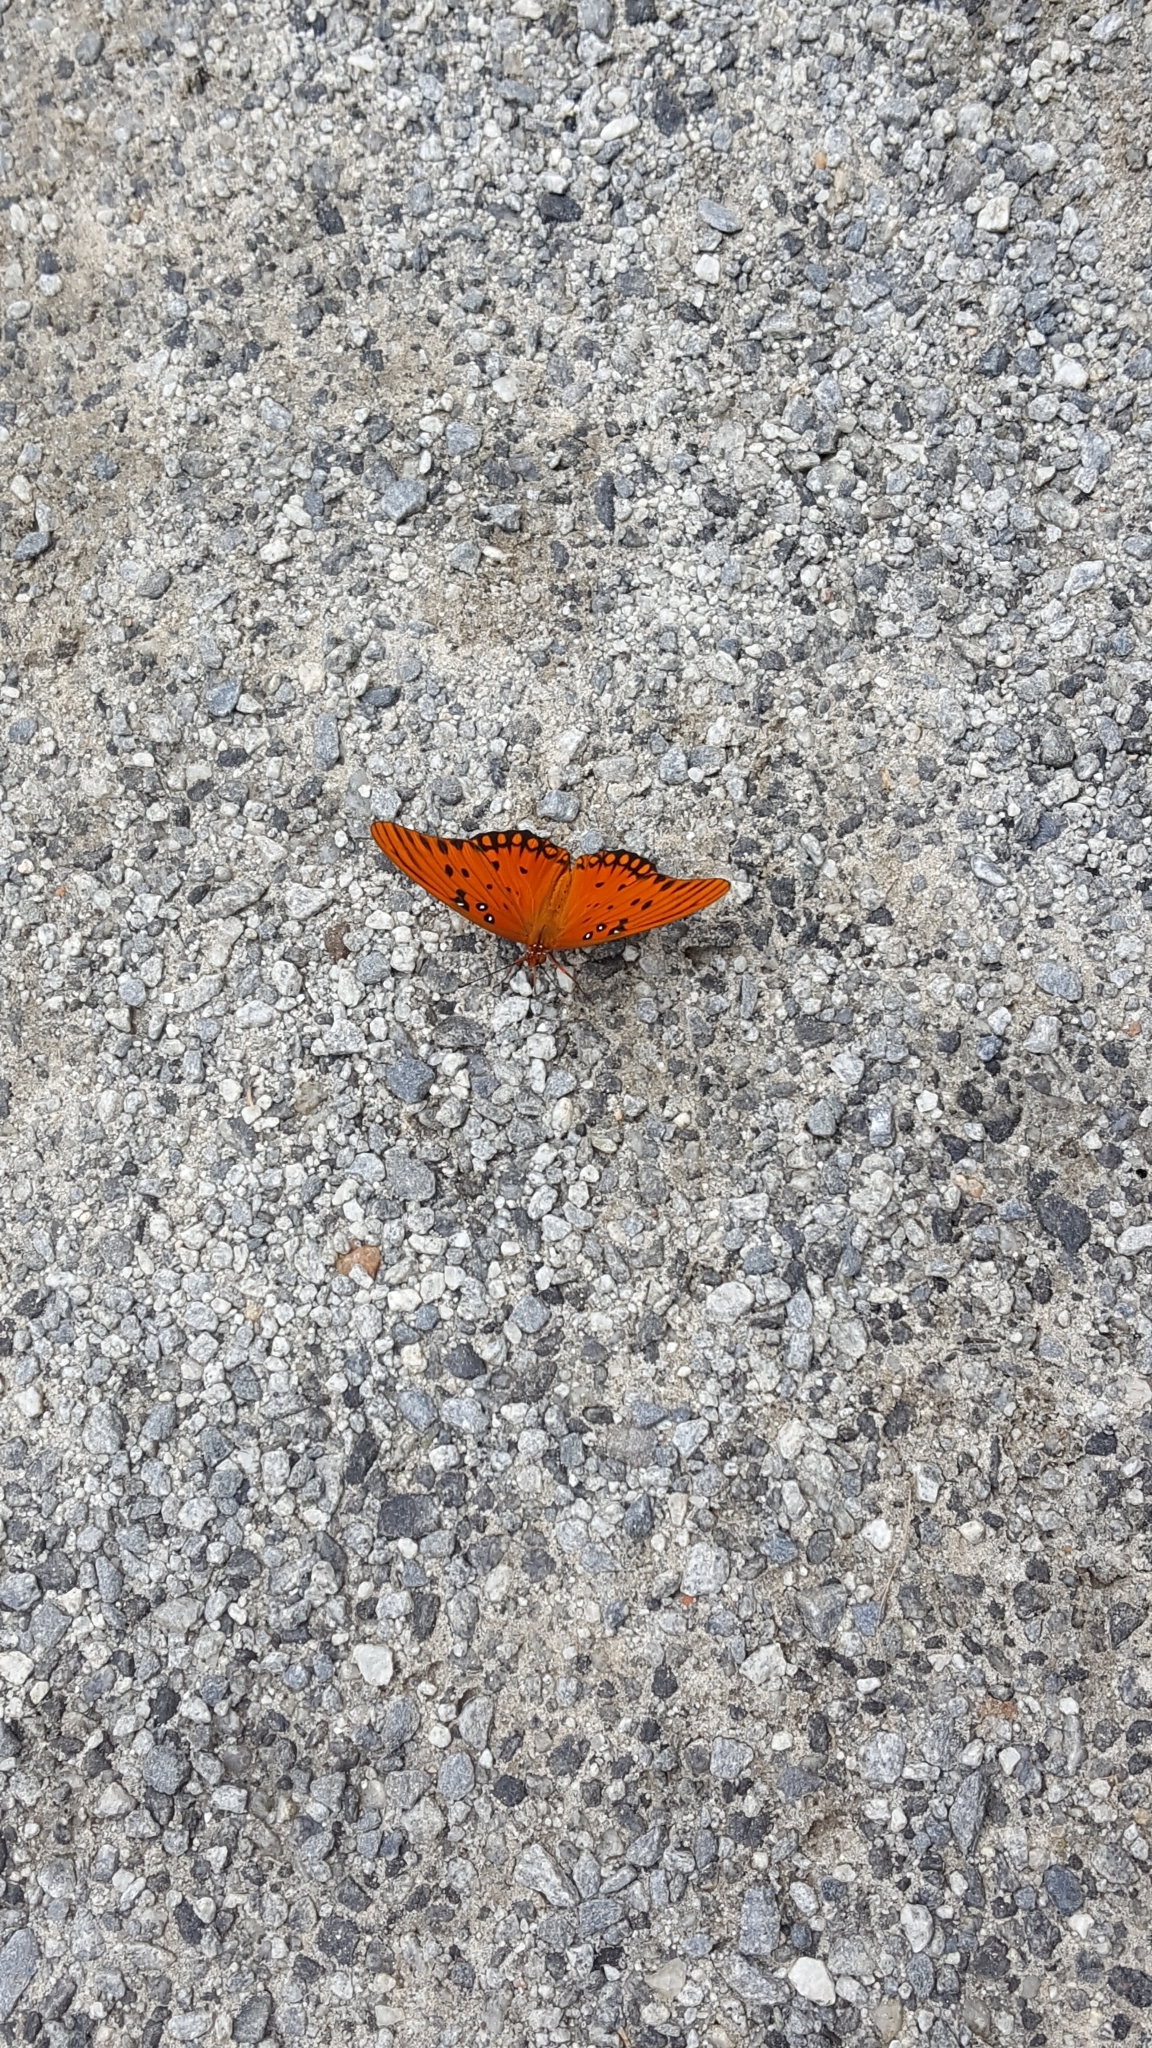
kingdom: Animalia
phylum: Arthropoda
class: Insecta
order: Lepidoptera
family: Nymphalidae
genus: Dione
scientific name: Dione vanillae
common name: Gulf fritillary
